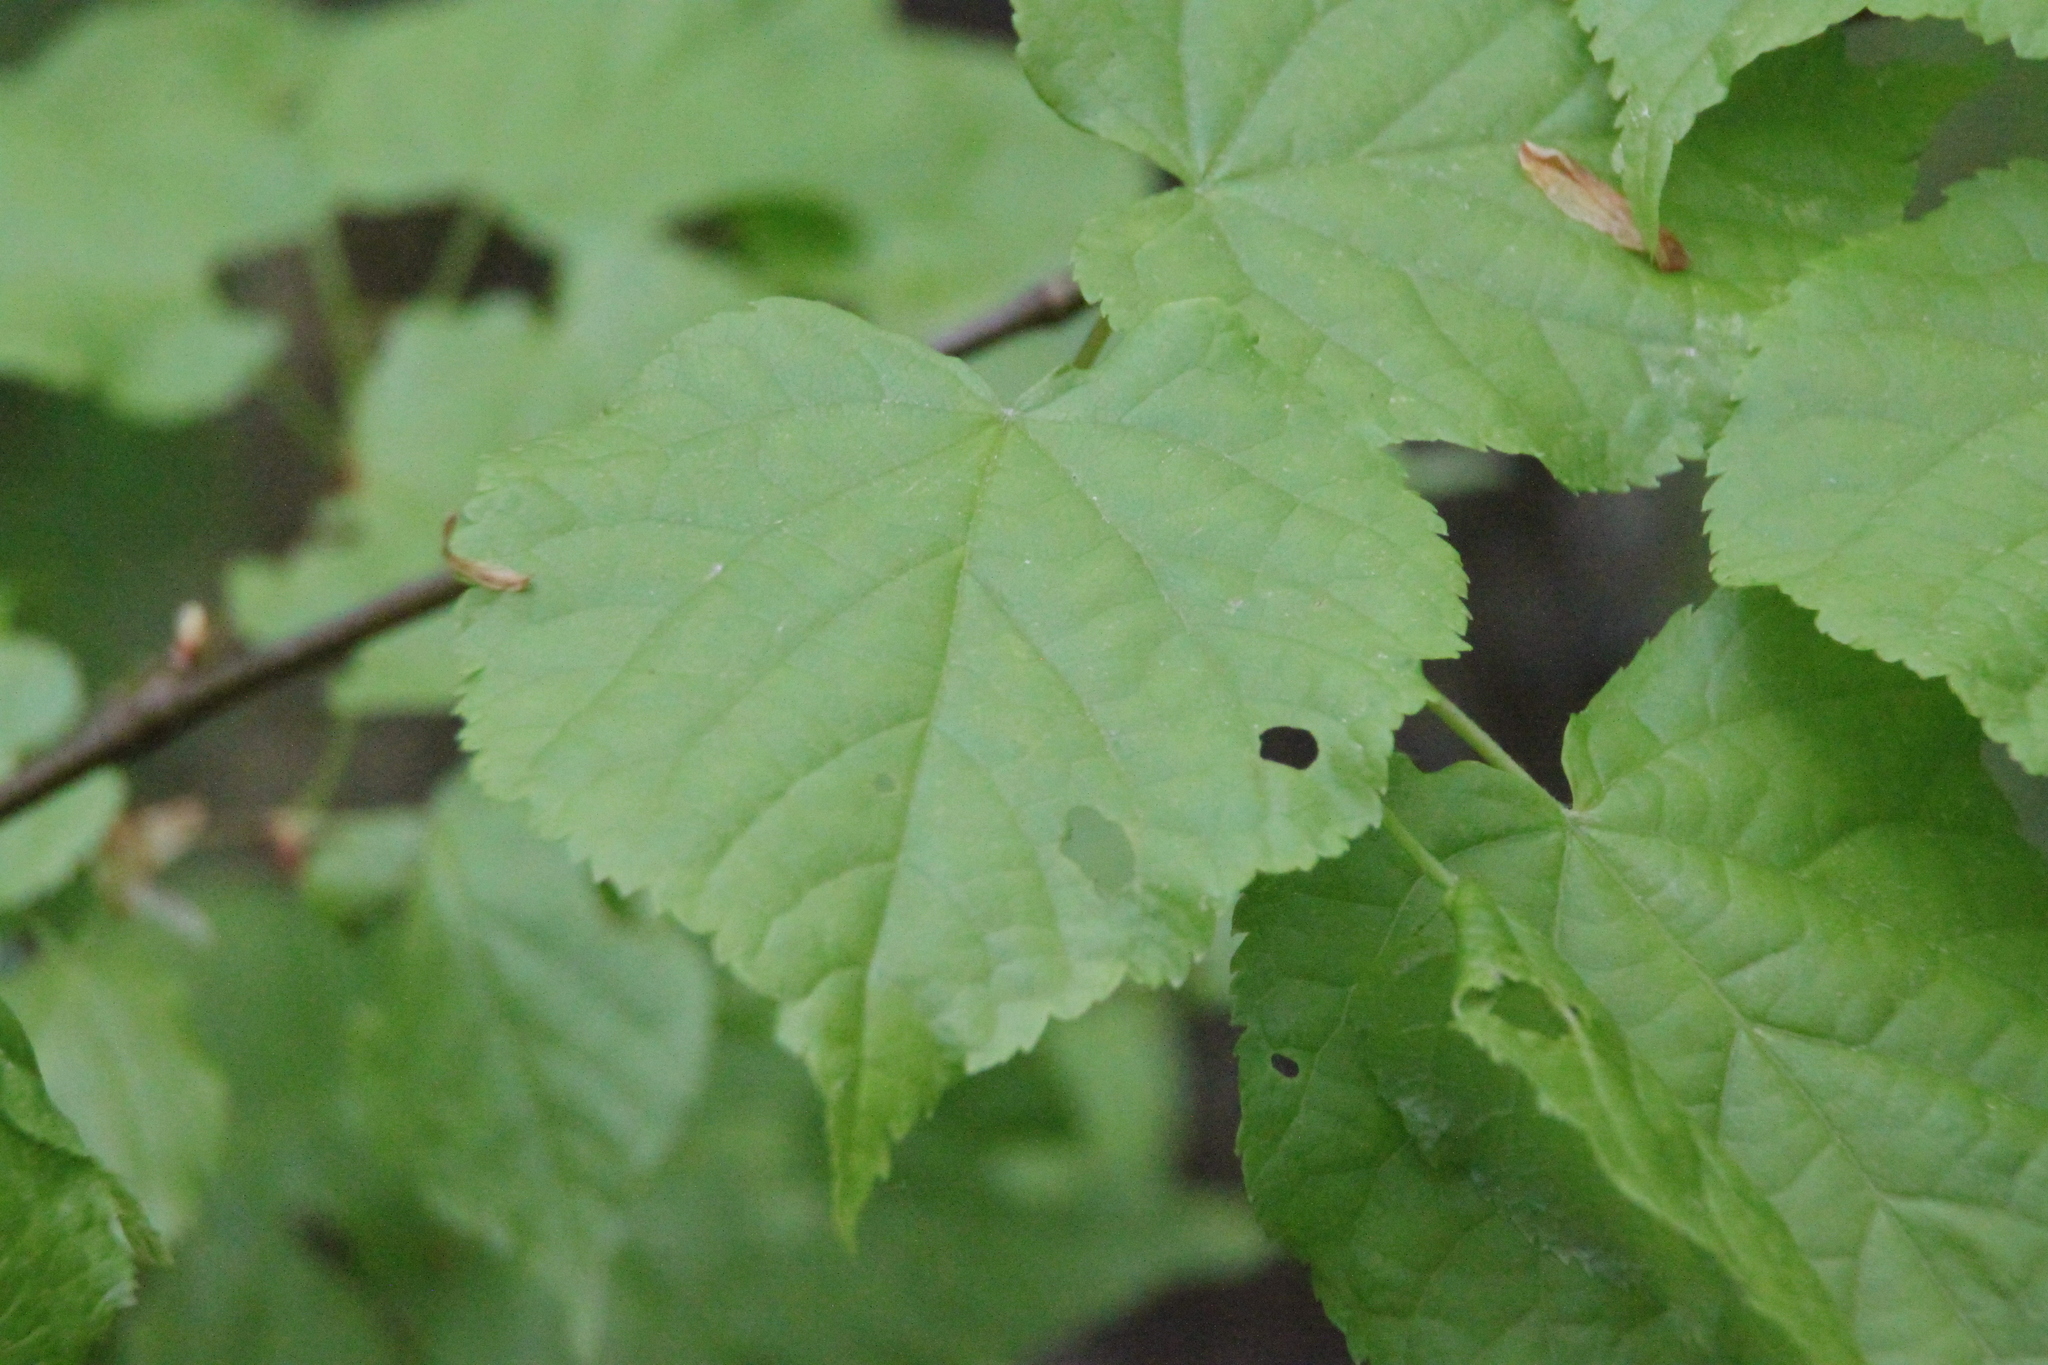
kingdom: Plantae
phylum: Tracheophyta
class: Magnoliopsida
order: Malvales
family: Malvaceae
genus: Tilia
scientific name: Tilia cordata
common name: Small-leaved lime
